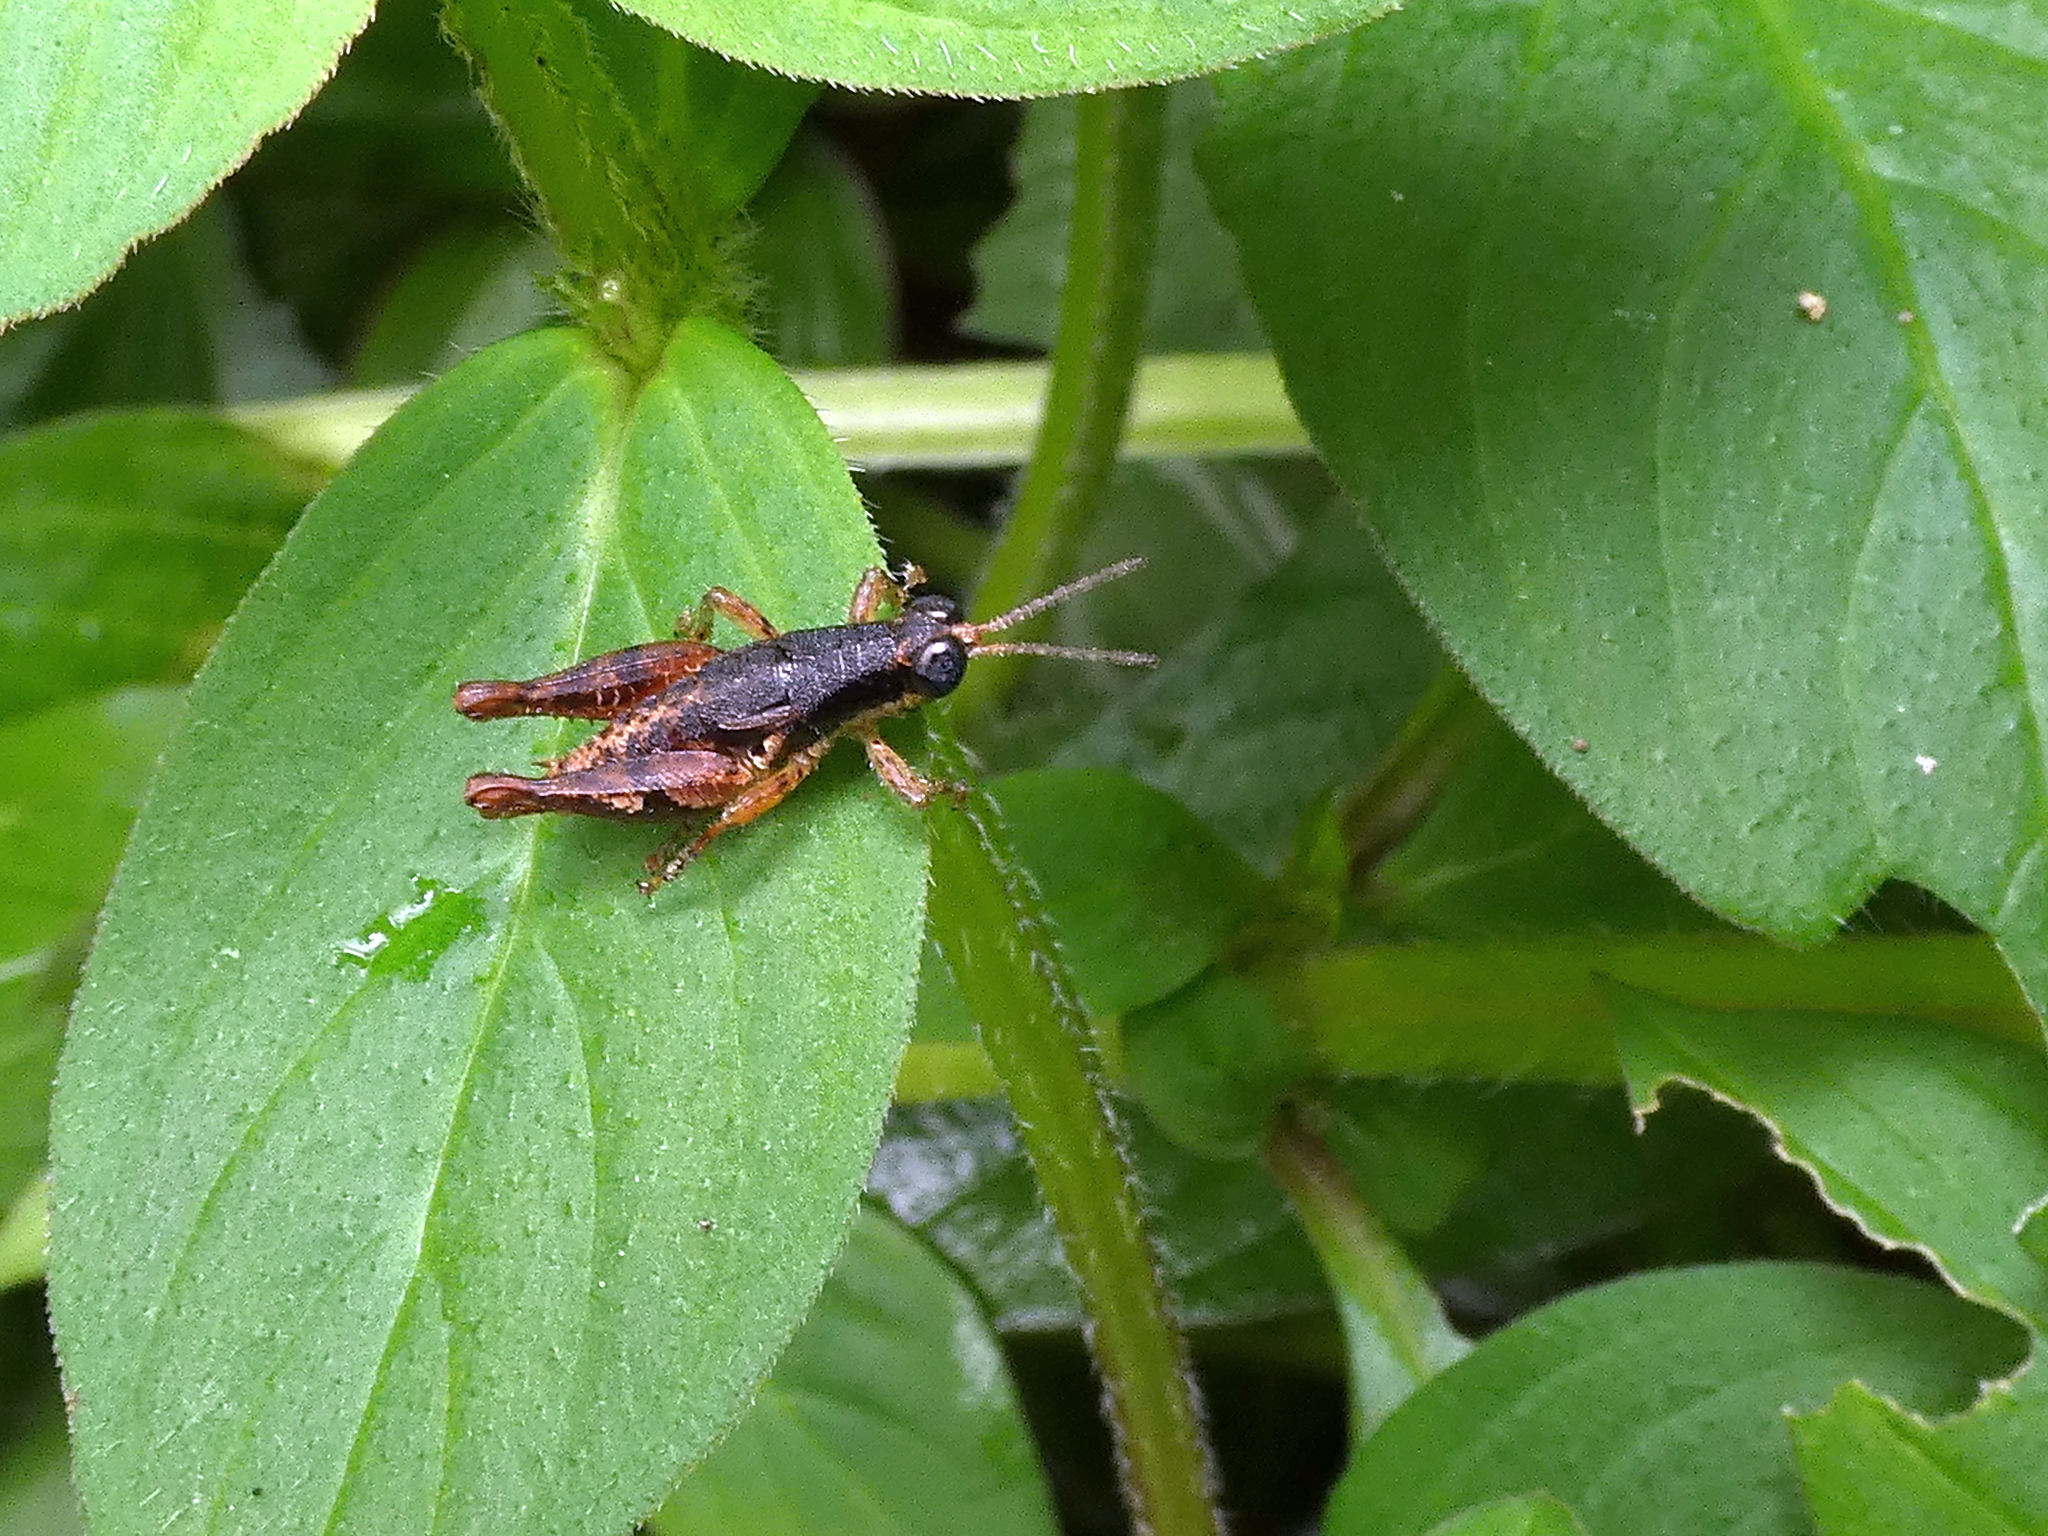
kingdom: Animalia
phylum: Arthropoda
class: Insecta
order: Orthoptera
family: Acrididae
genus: Eujivarus
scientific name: Eujivarus meridionalis
